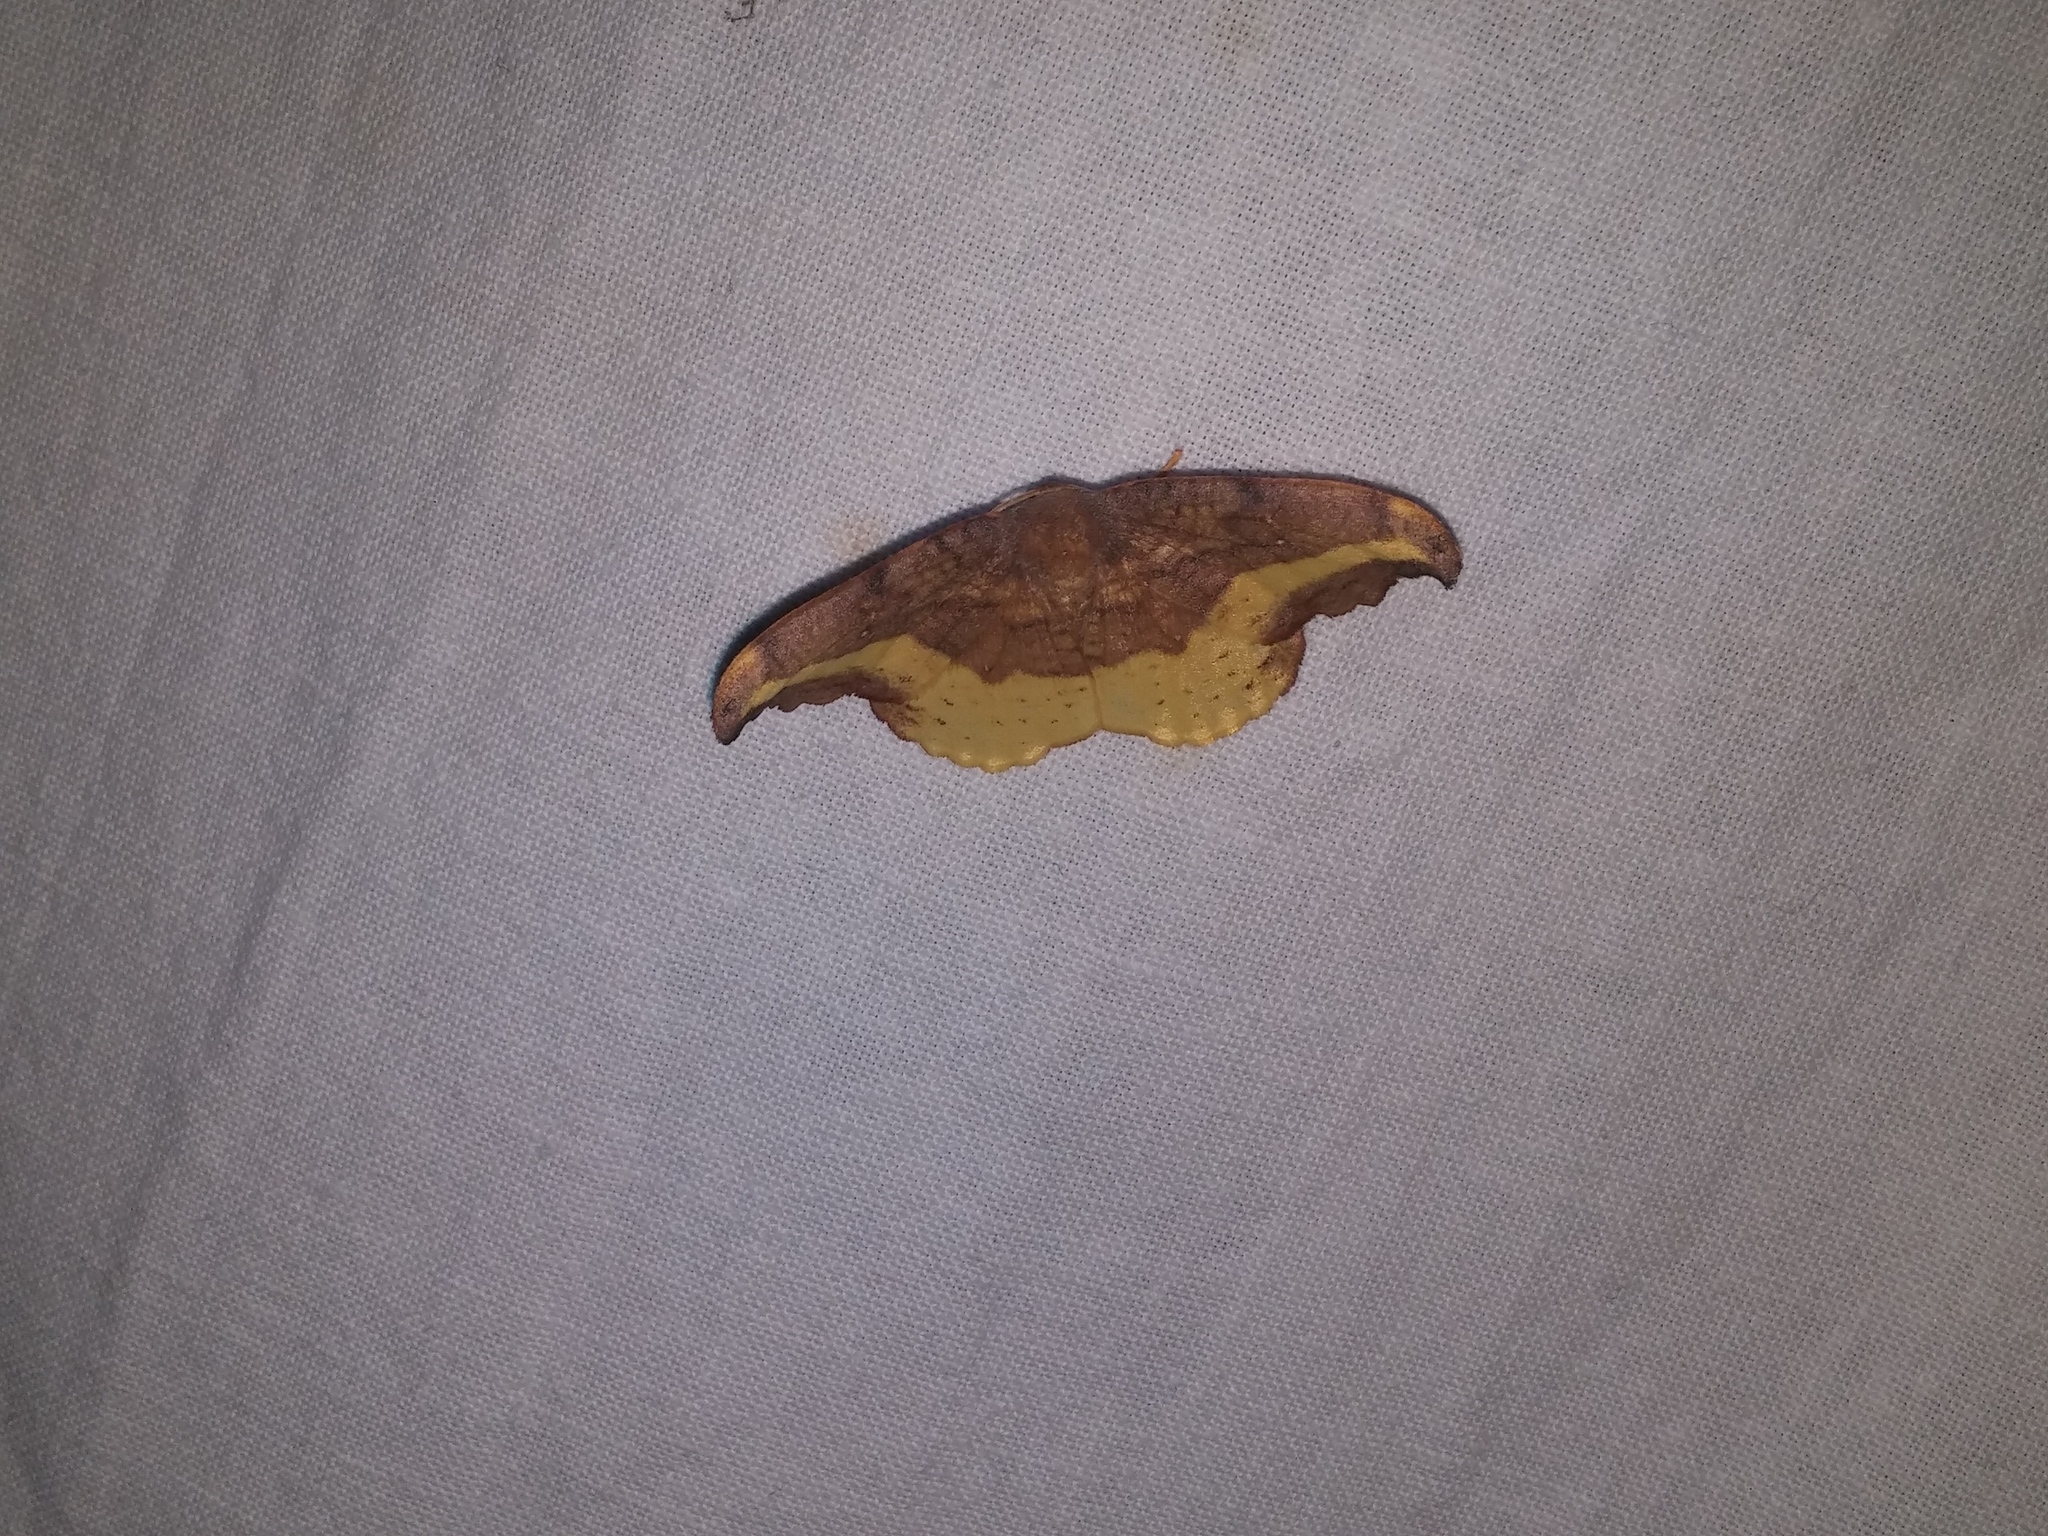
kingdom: Animalia
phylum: Arthropoda
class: Insecta
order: Lepidoptera
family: Drepanidae
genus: Oreta
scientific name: Oreta rosea
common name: Rose hooktip
